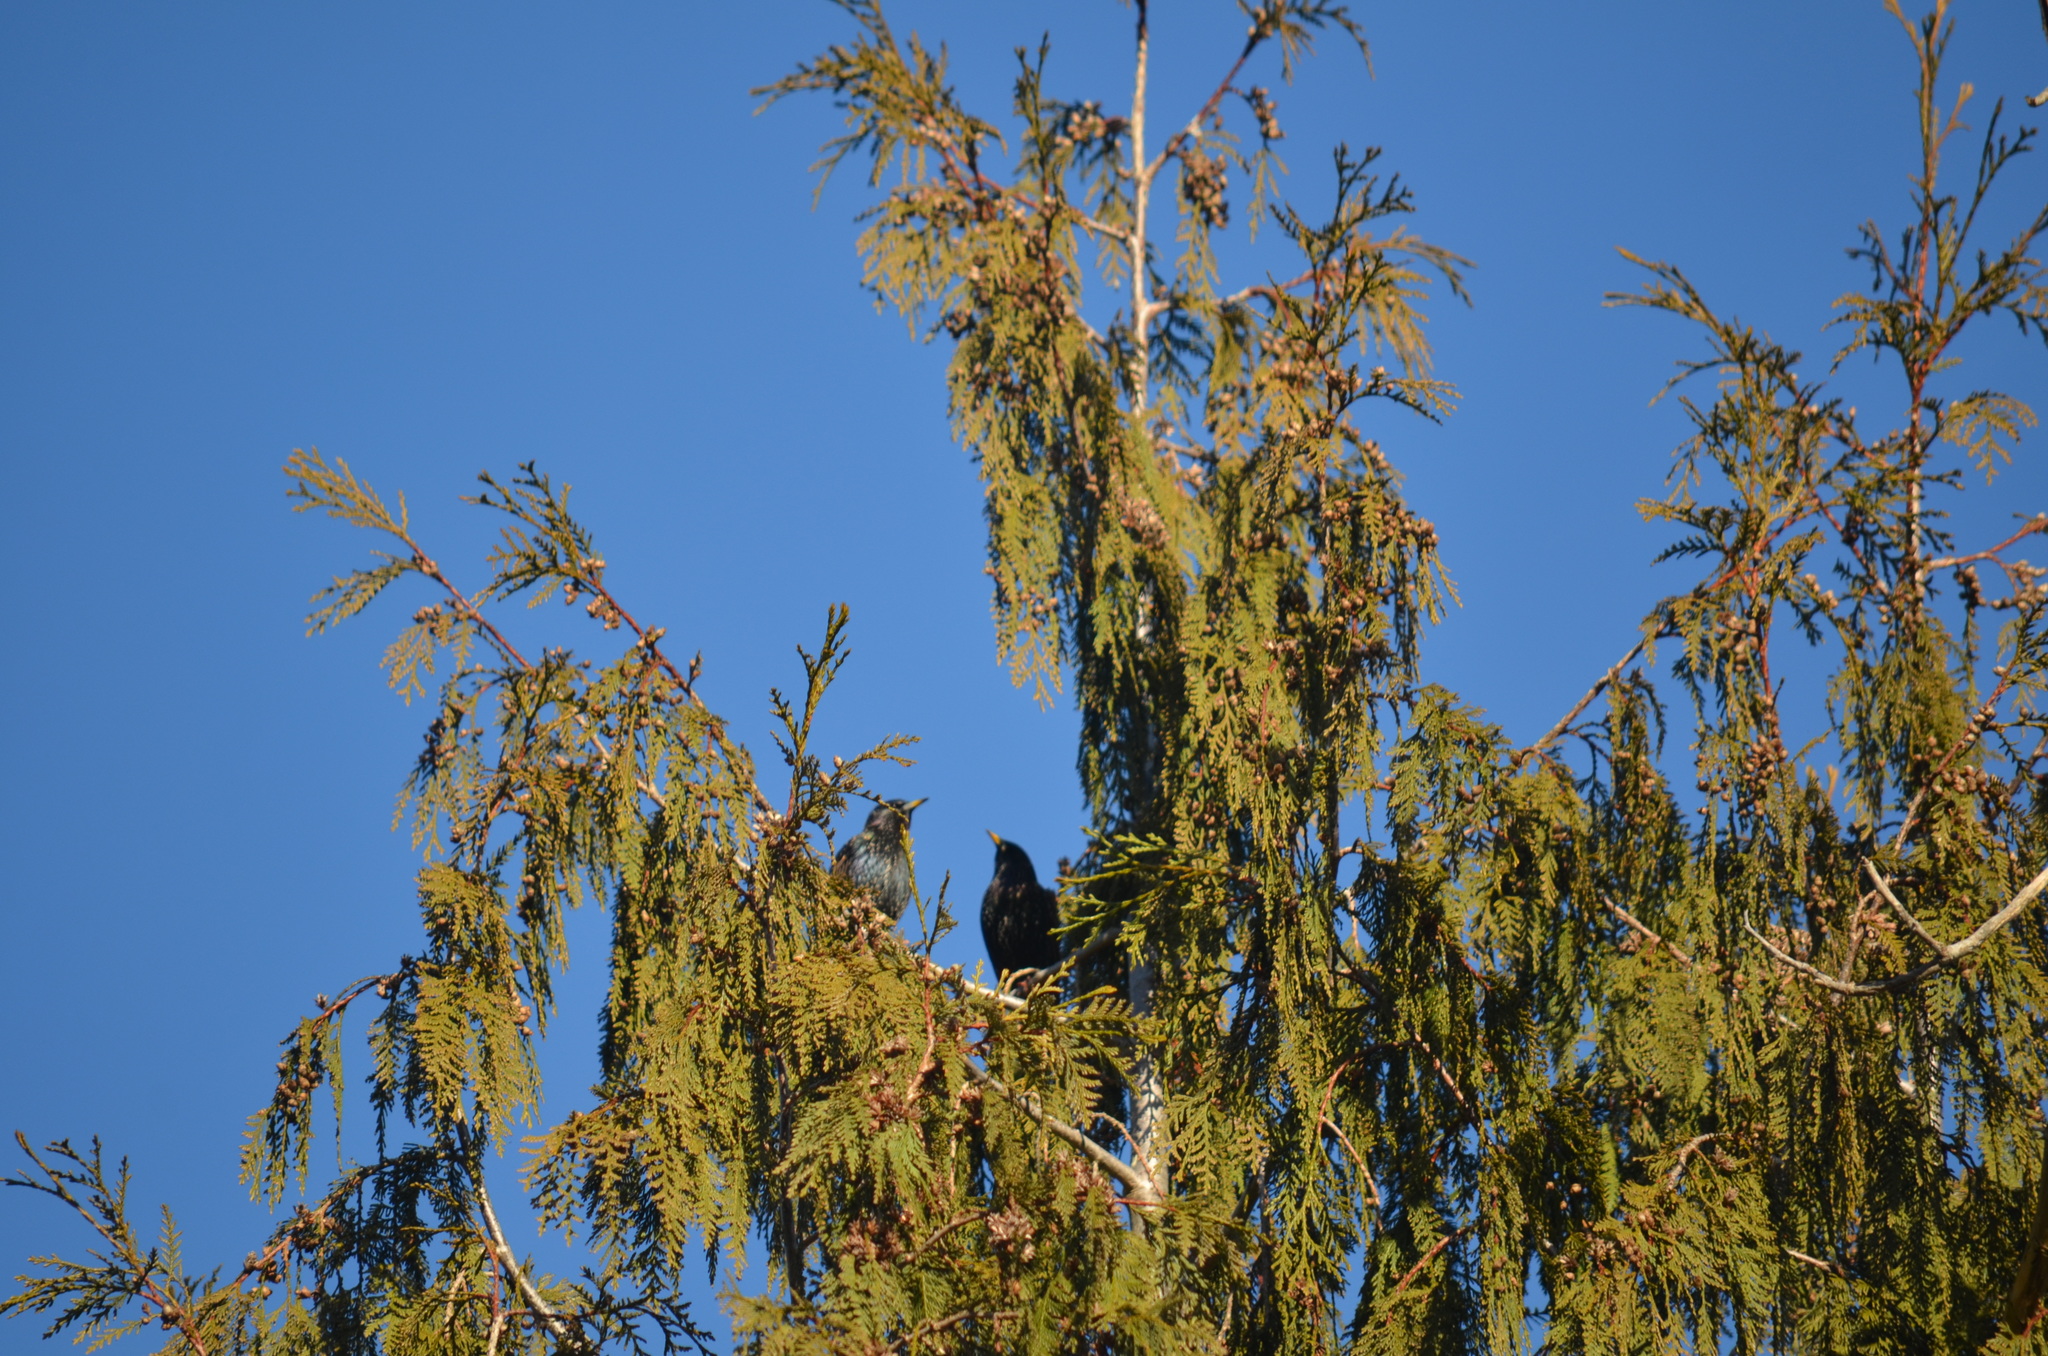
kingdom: Animalia
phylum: Chordata
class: Aves
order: Passeriformes
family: Sturnidae
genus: Sturnus
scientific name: Sturnus vulgaris
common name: Common starling
